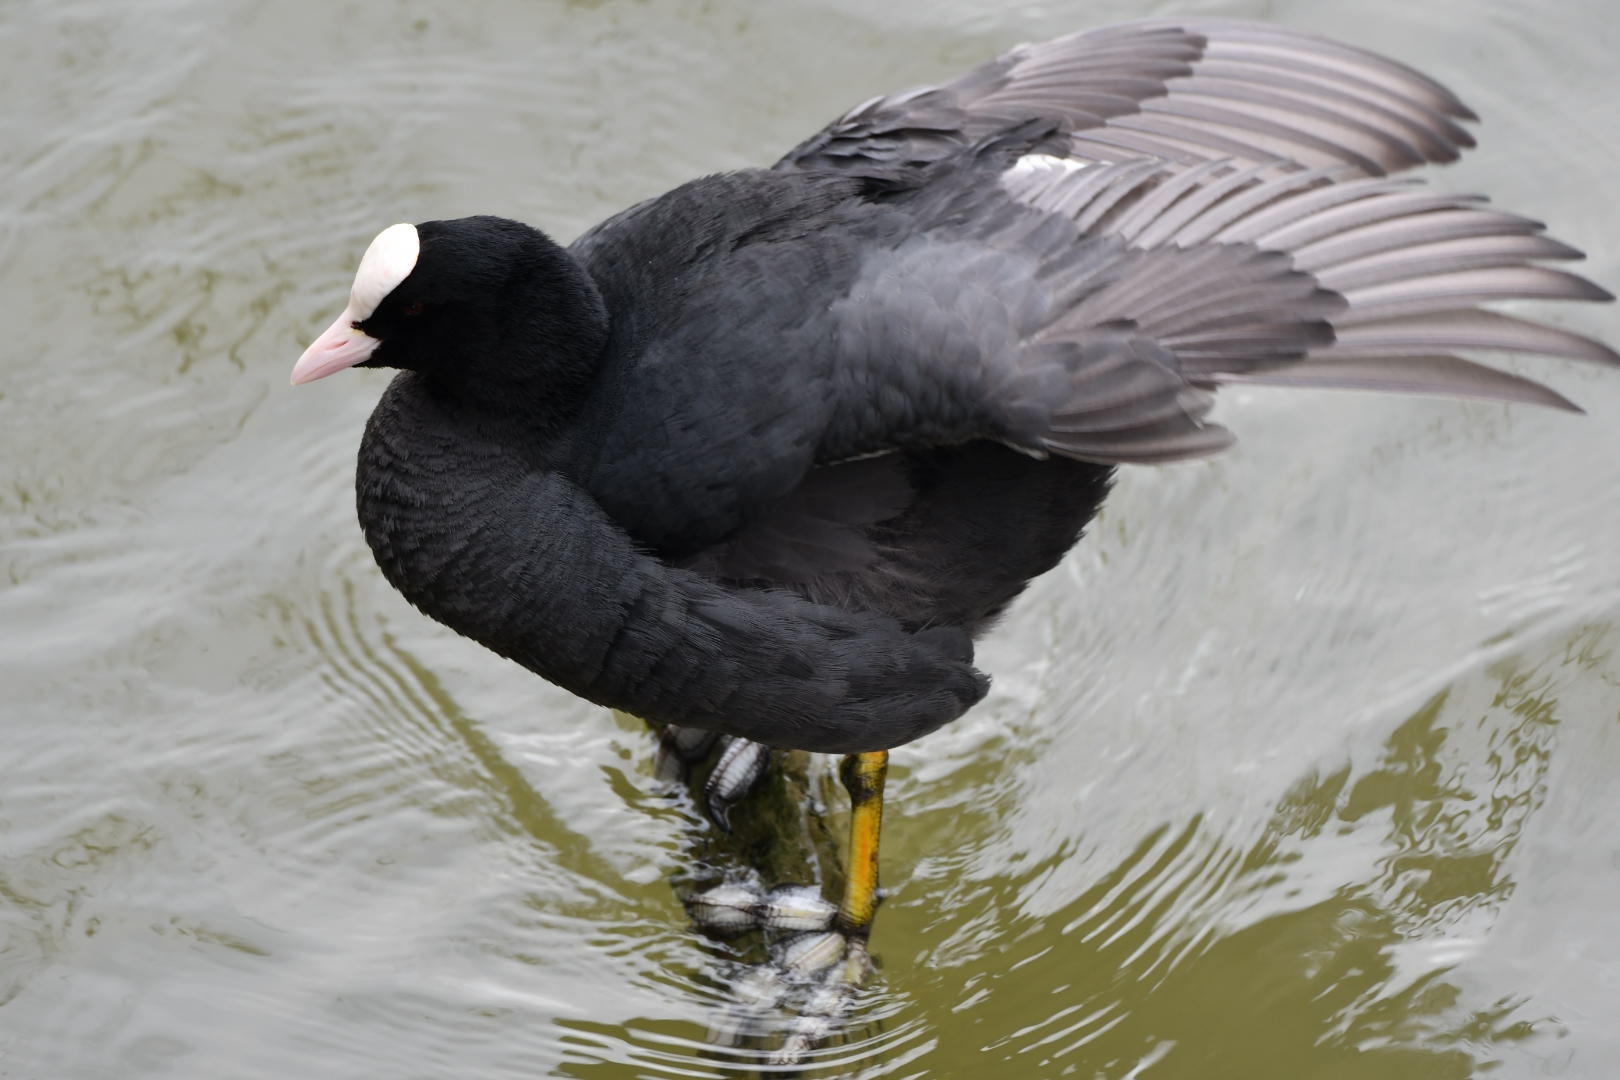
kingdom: Animalia
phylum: Chordata
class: Aves
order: Gruiformes
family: Rallidae
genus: Fulica
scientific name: Fulica atra
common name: Eurasian coot
